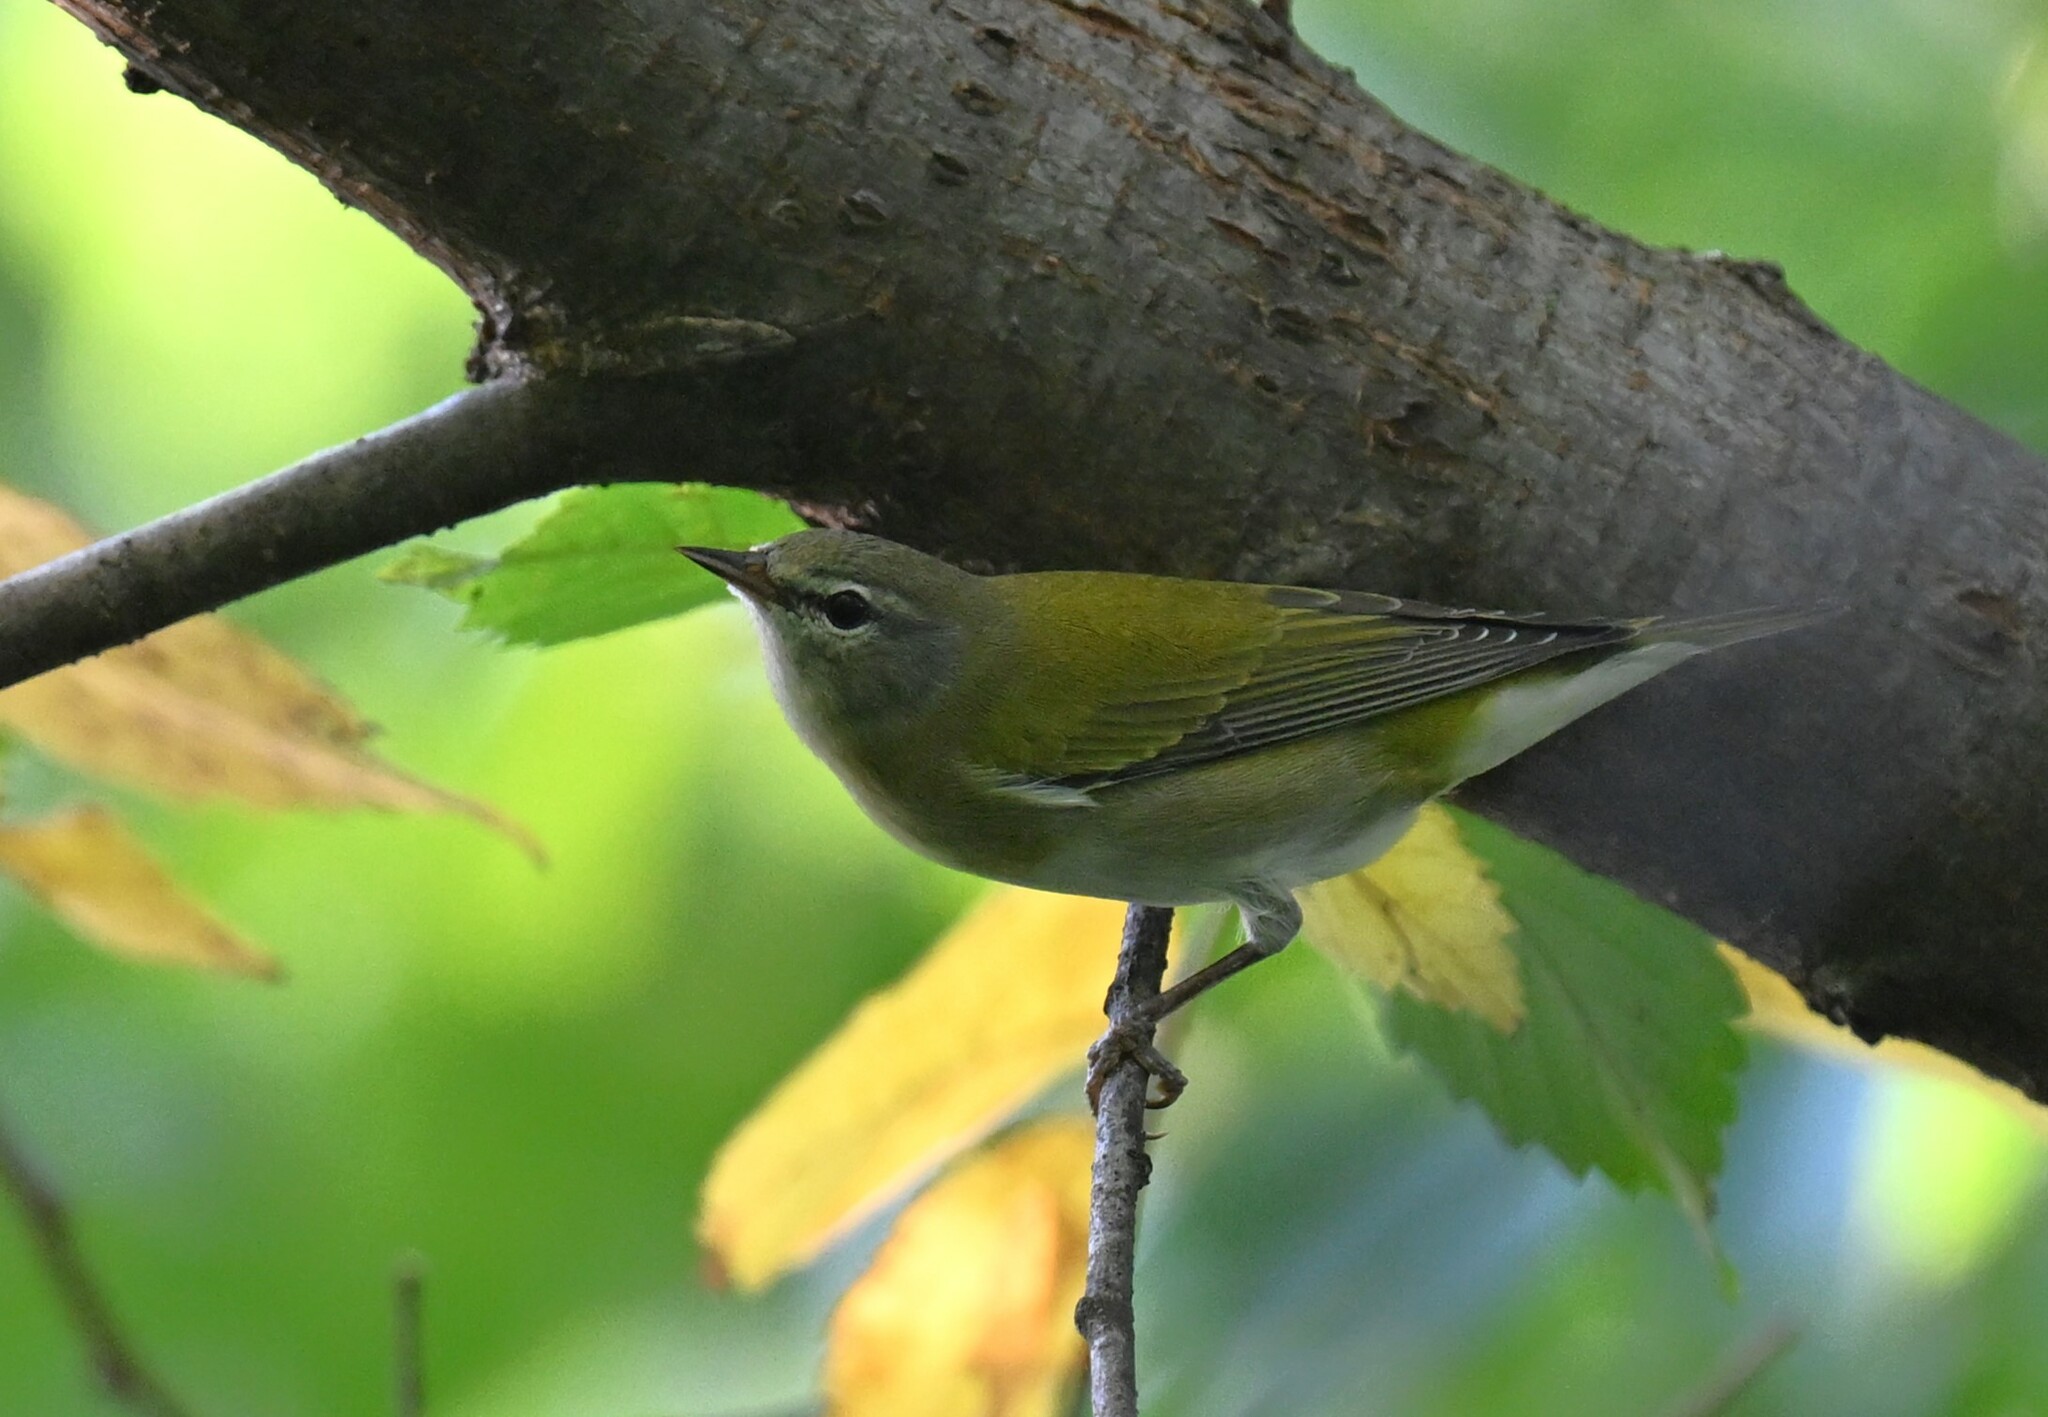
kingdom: Animalia
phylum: Chordata
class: Aves
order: Passeriformes
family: Parulidae
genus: Leiothlypis
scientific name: Leiothlypis peregrina
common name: Tennessee warbler
